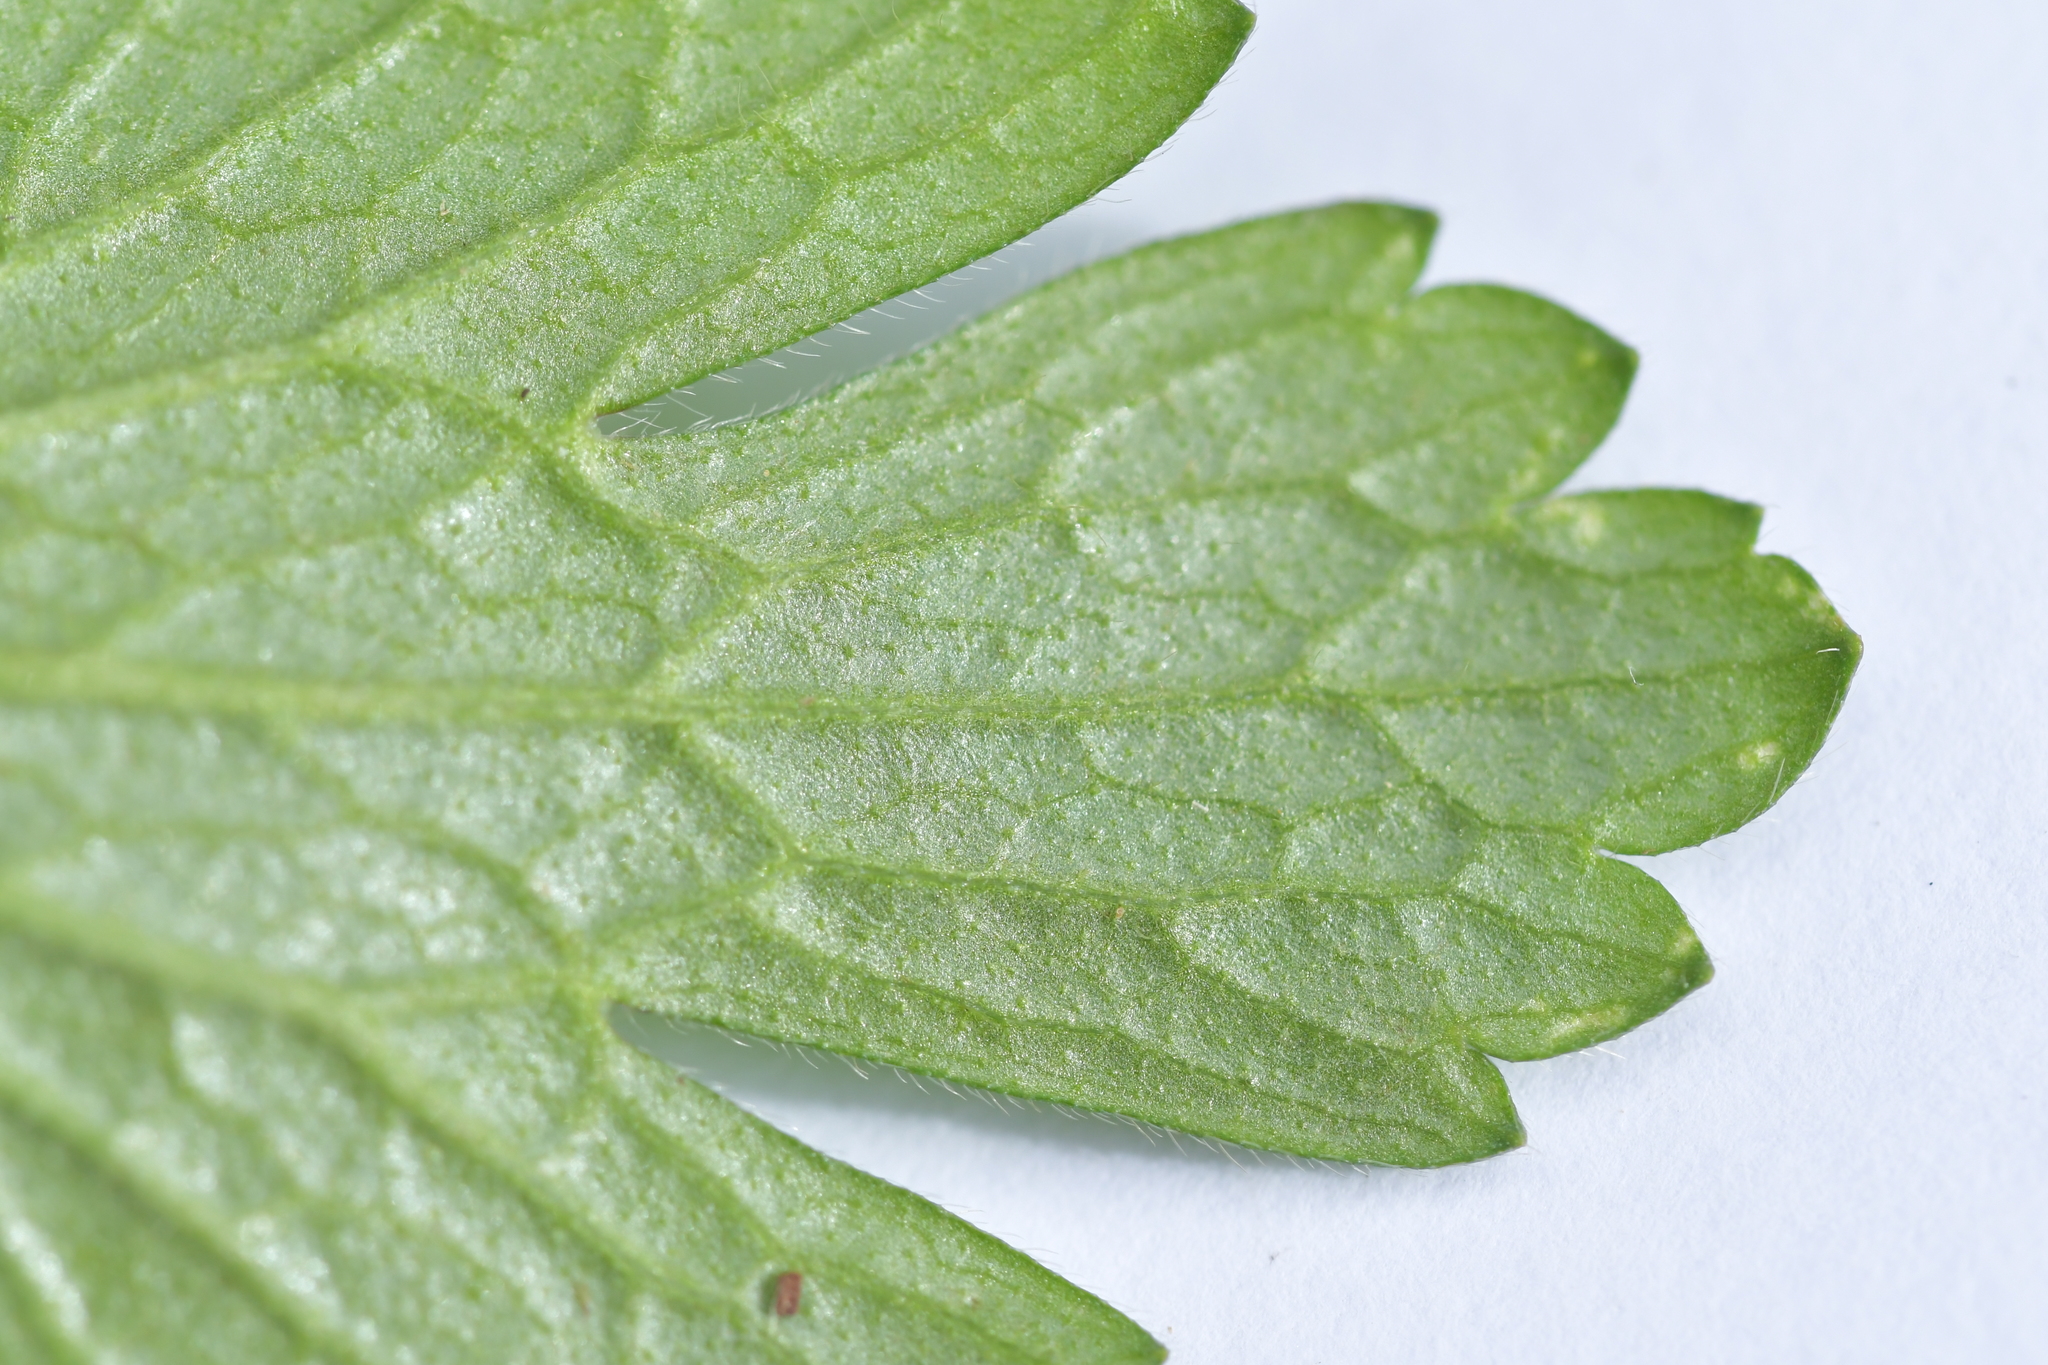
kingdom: Plantae
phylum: Tracheophyta
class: Magnoliopsida
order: Ranunculales
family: Ranunculaceae
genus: Ranunculus
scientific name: Ranunculus repens
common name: Creeping buttercup
